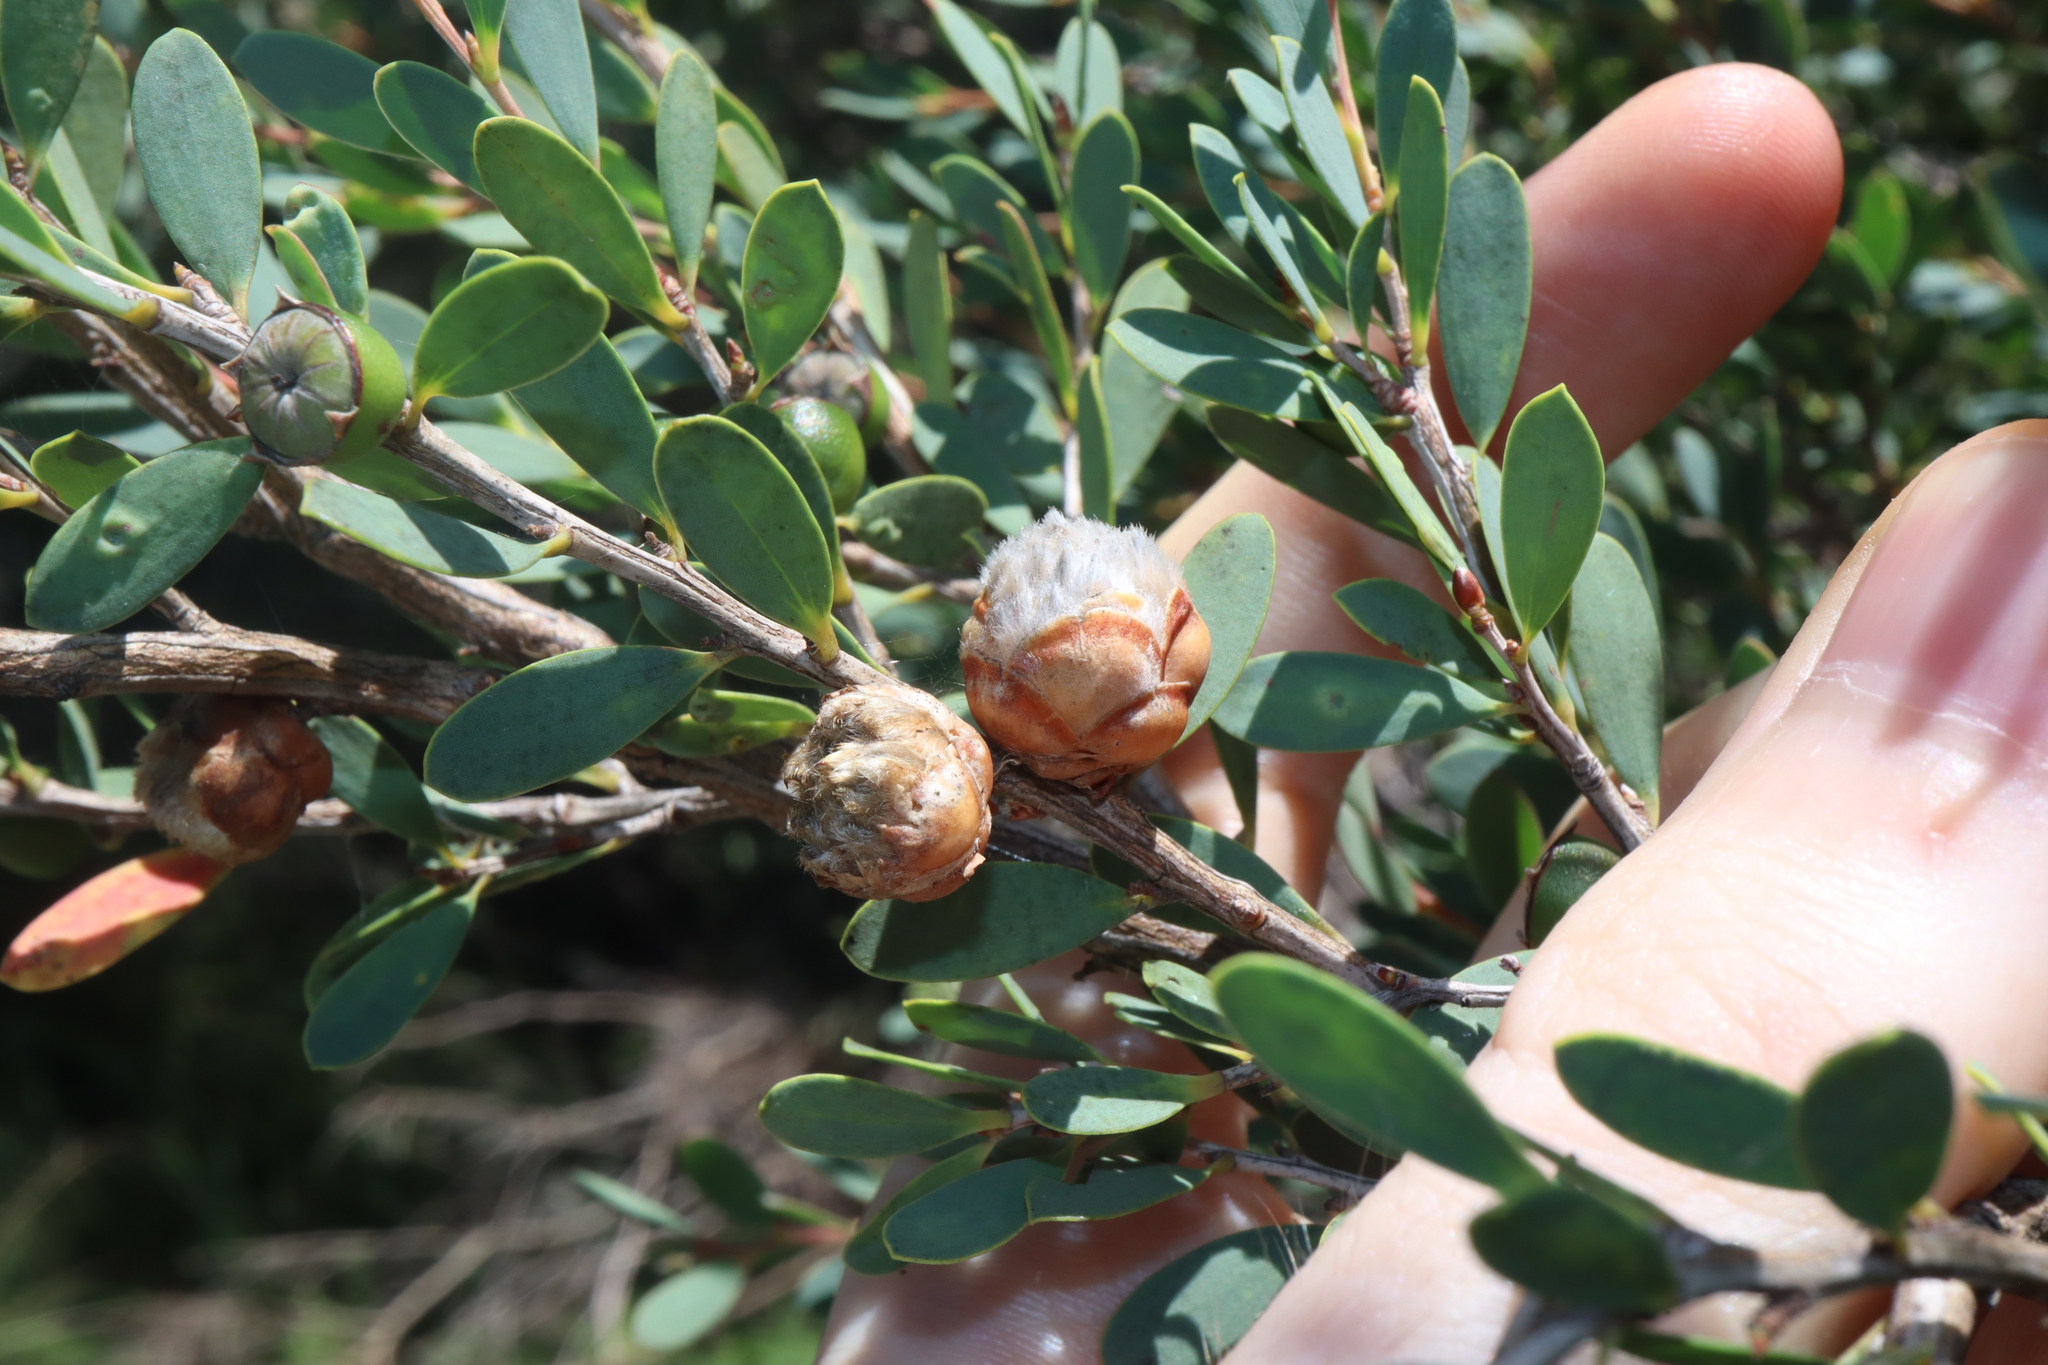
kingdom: Animalia
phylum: Arthropoda
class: Insecta
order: Diptera
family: Cecidomyiidae
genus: Dasineura
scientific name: Dasineura
